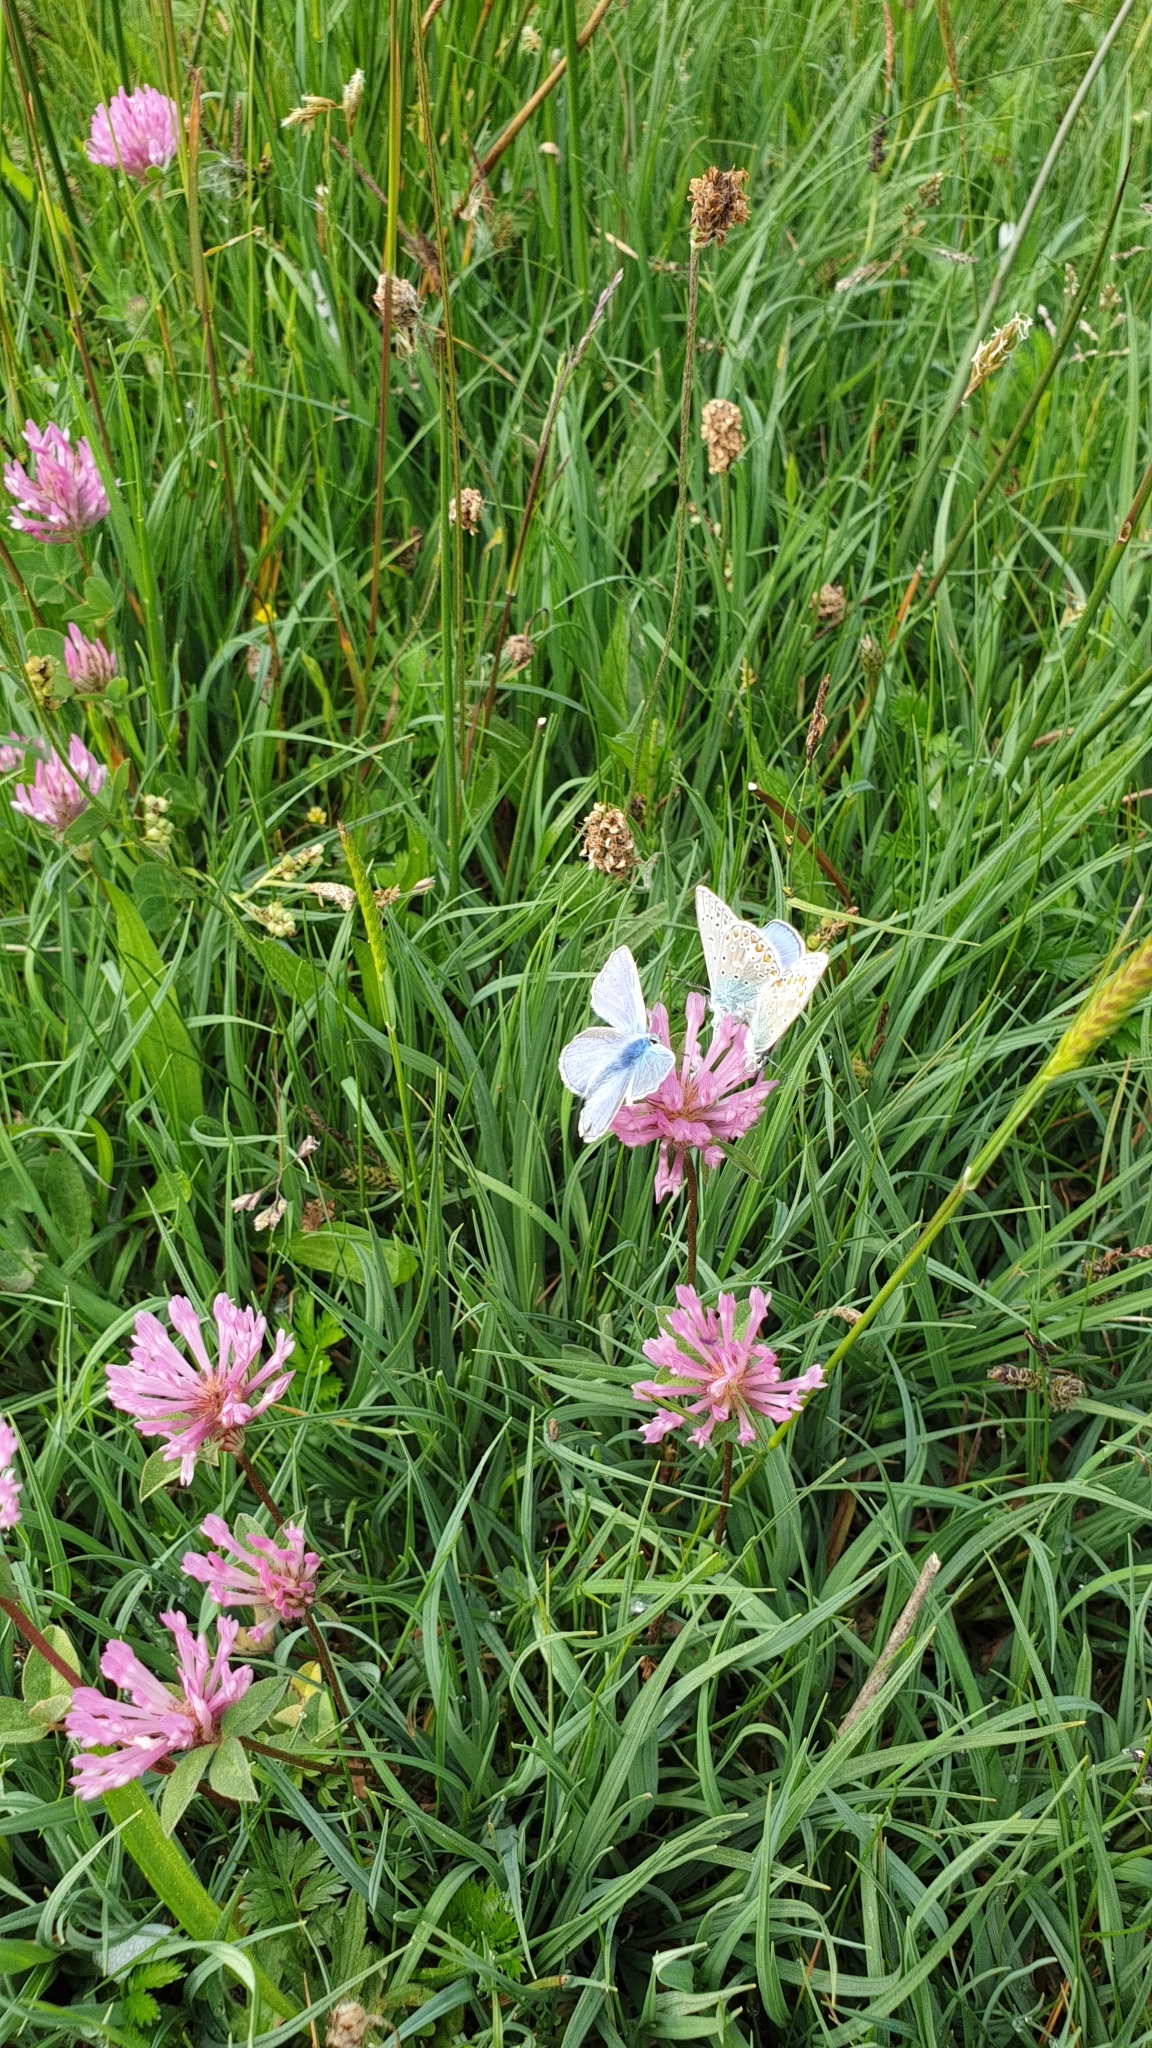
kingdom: Animalia
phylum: Arthropoda
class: Insecta
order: Lepidoptera
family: Lycaenidae
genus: Polyommatus
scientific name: Polyommatus icarus
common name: Common blue
